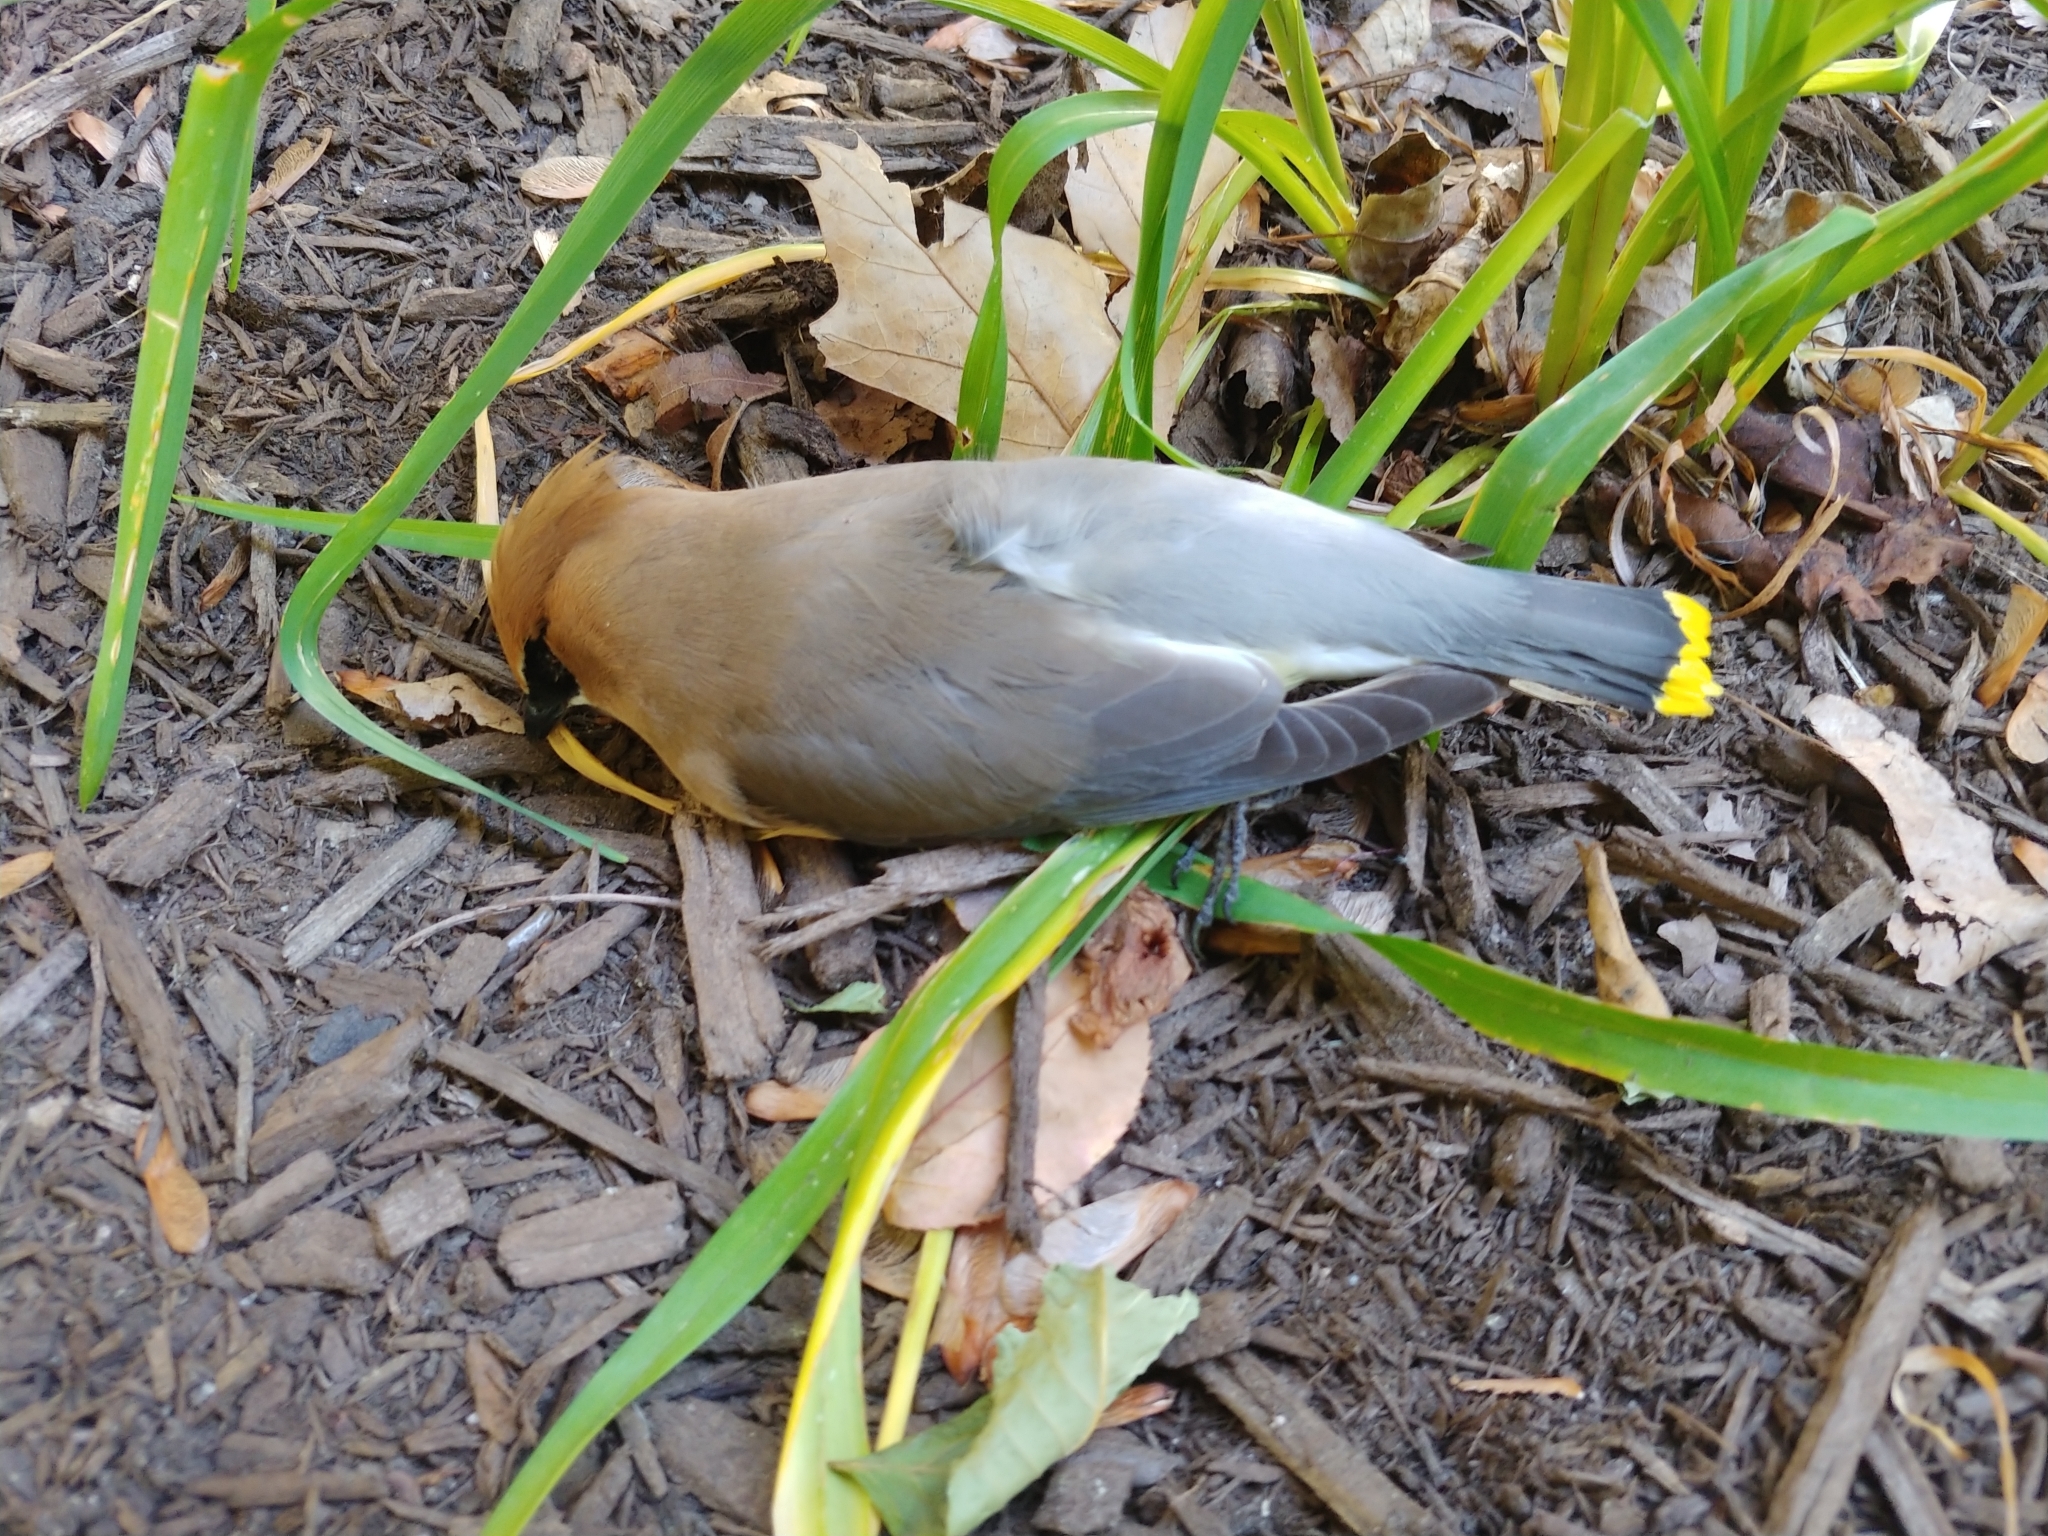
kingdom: Animalia
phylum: Chordata
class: Aves
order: Passeriformes
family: Bombycillidae
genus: Bombycilla
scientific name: Bombycilla cedrorum
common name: Cedar waxwing
